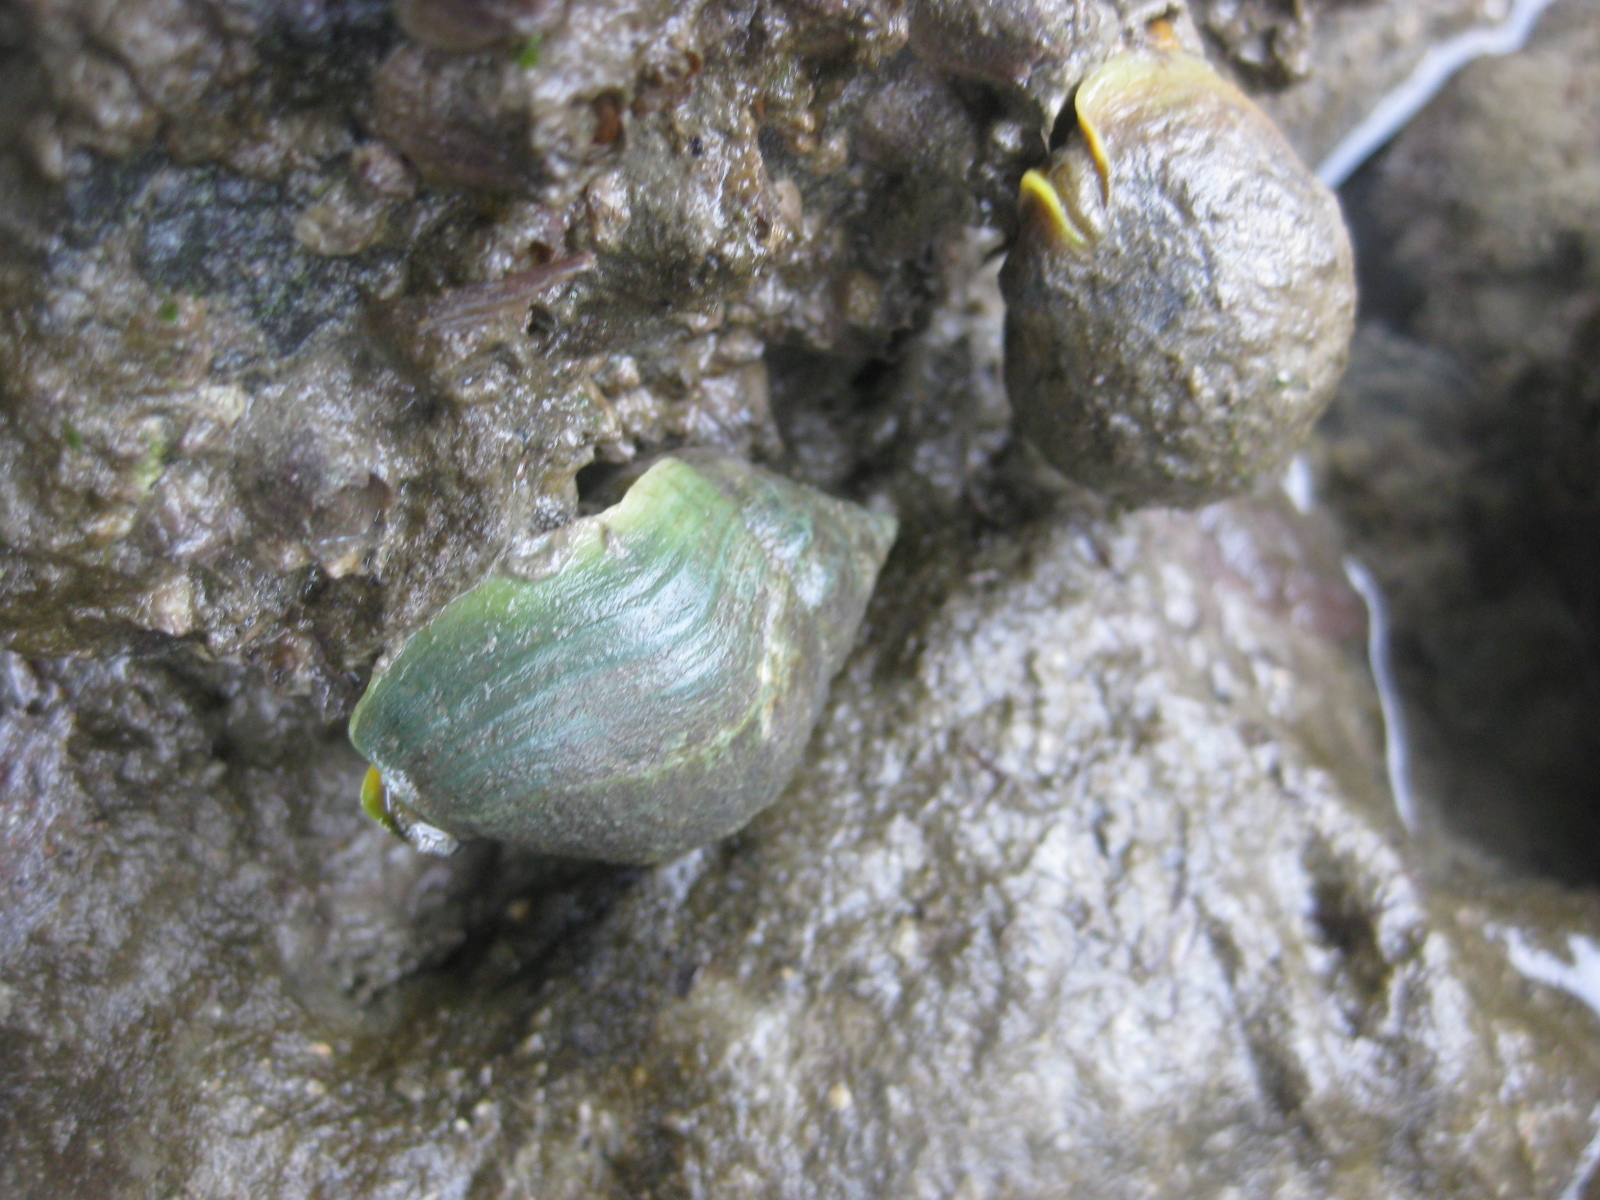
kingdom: Animalia
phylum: Mollusca
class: Gastropoda
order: Neogastropoda
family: Cominellidae
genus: Cominella
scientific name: Cominella adspersa
